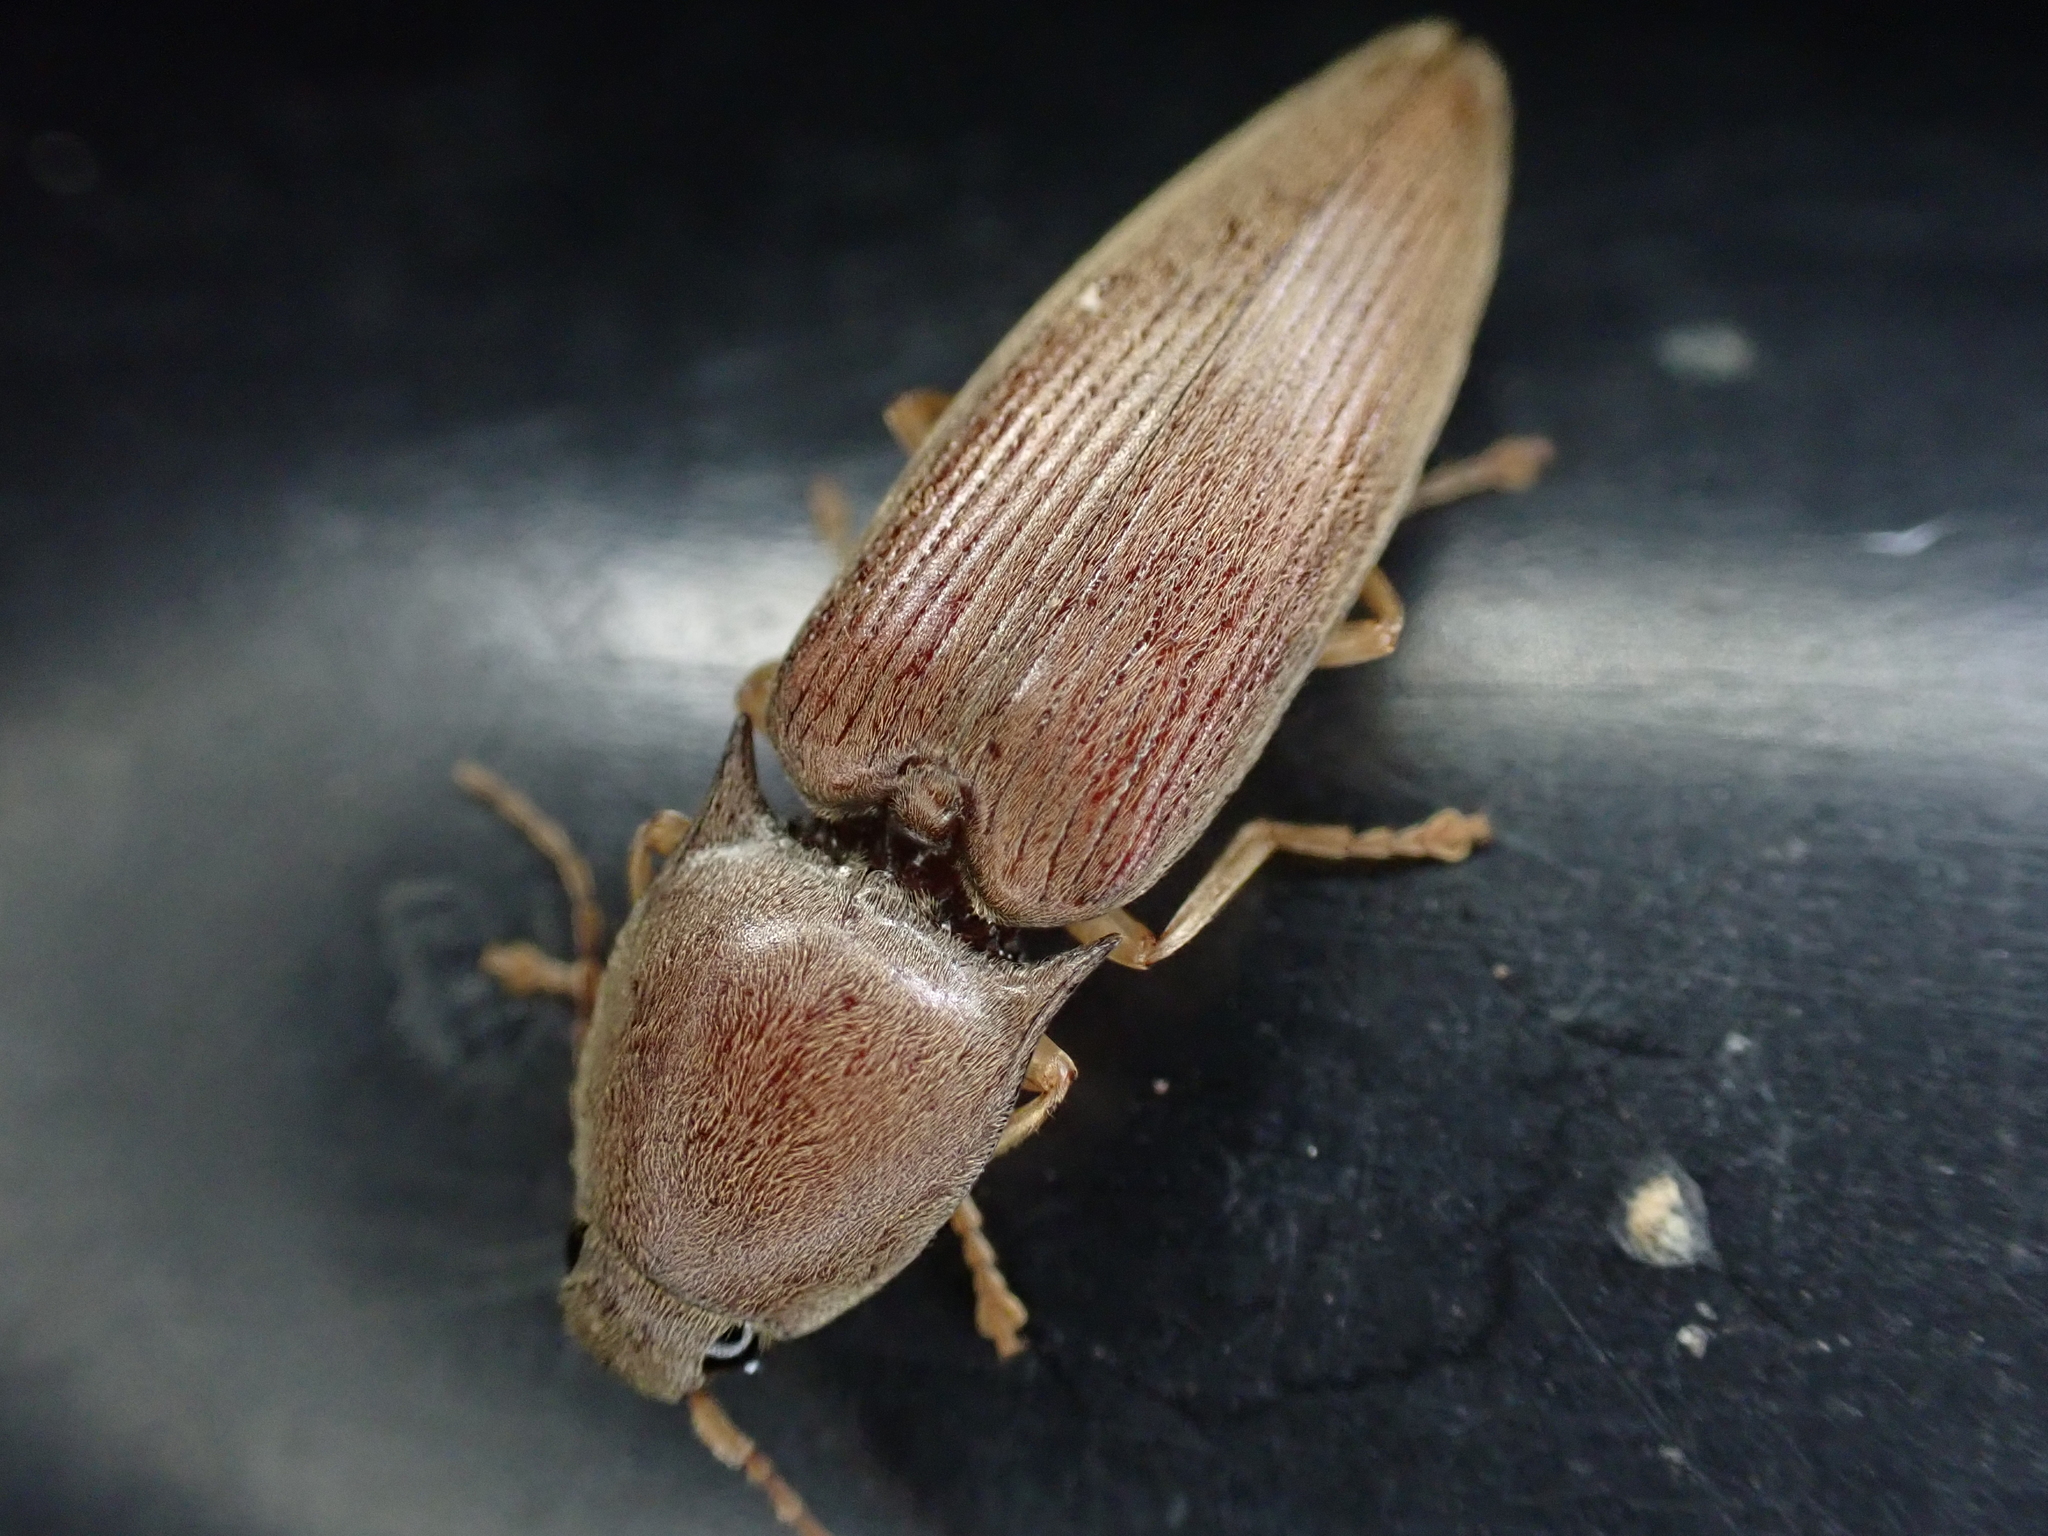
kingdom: Animalia
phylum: Arthropoda
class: Insecta
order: Coleoptera
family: Elateridae
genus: Monocrepidius
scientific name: Monocrepidius lividus
